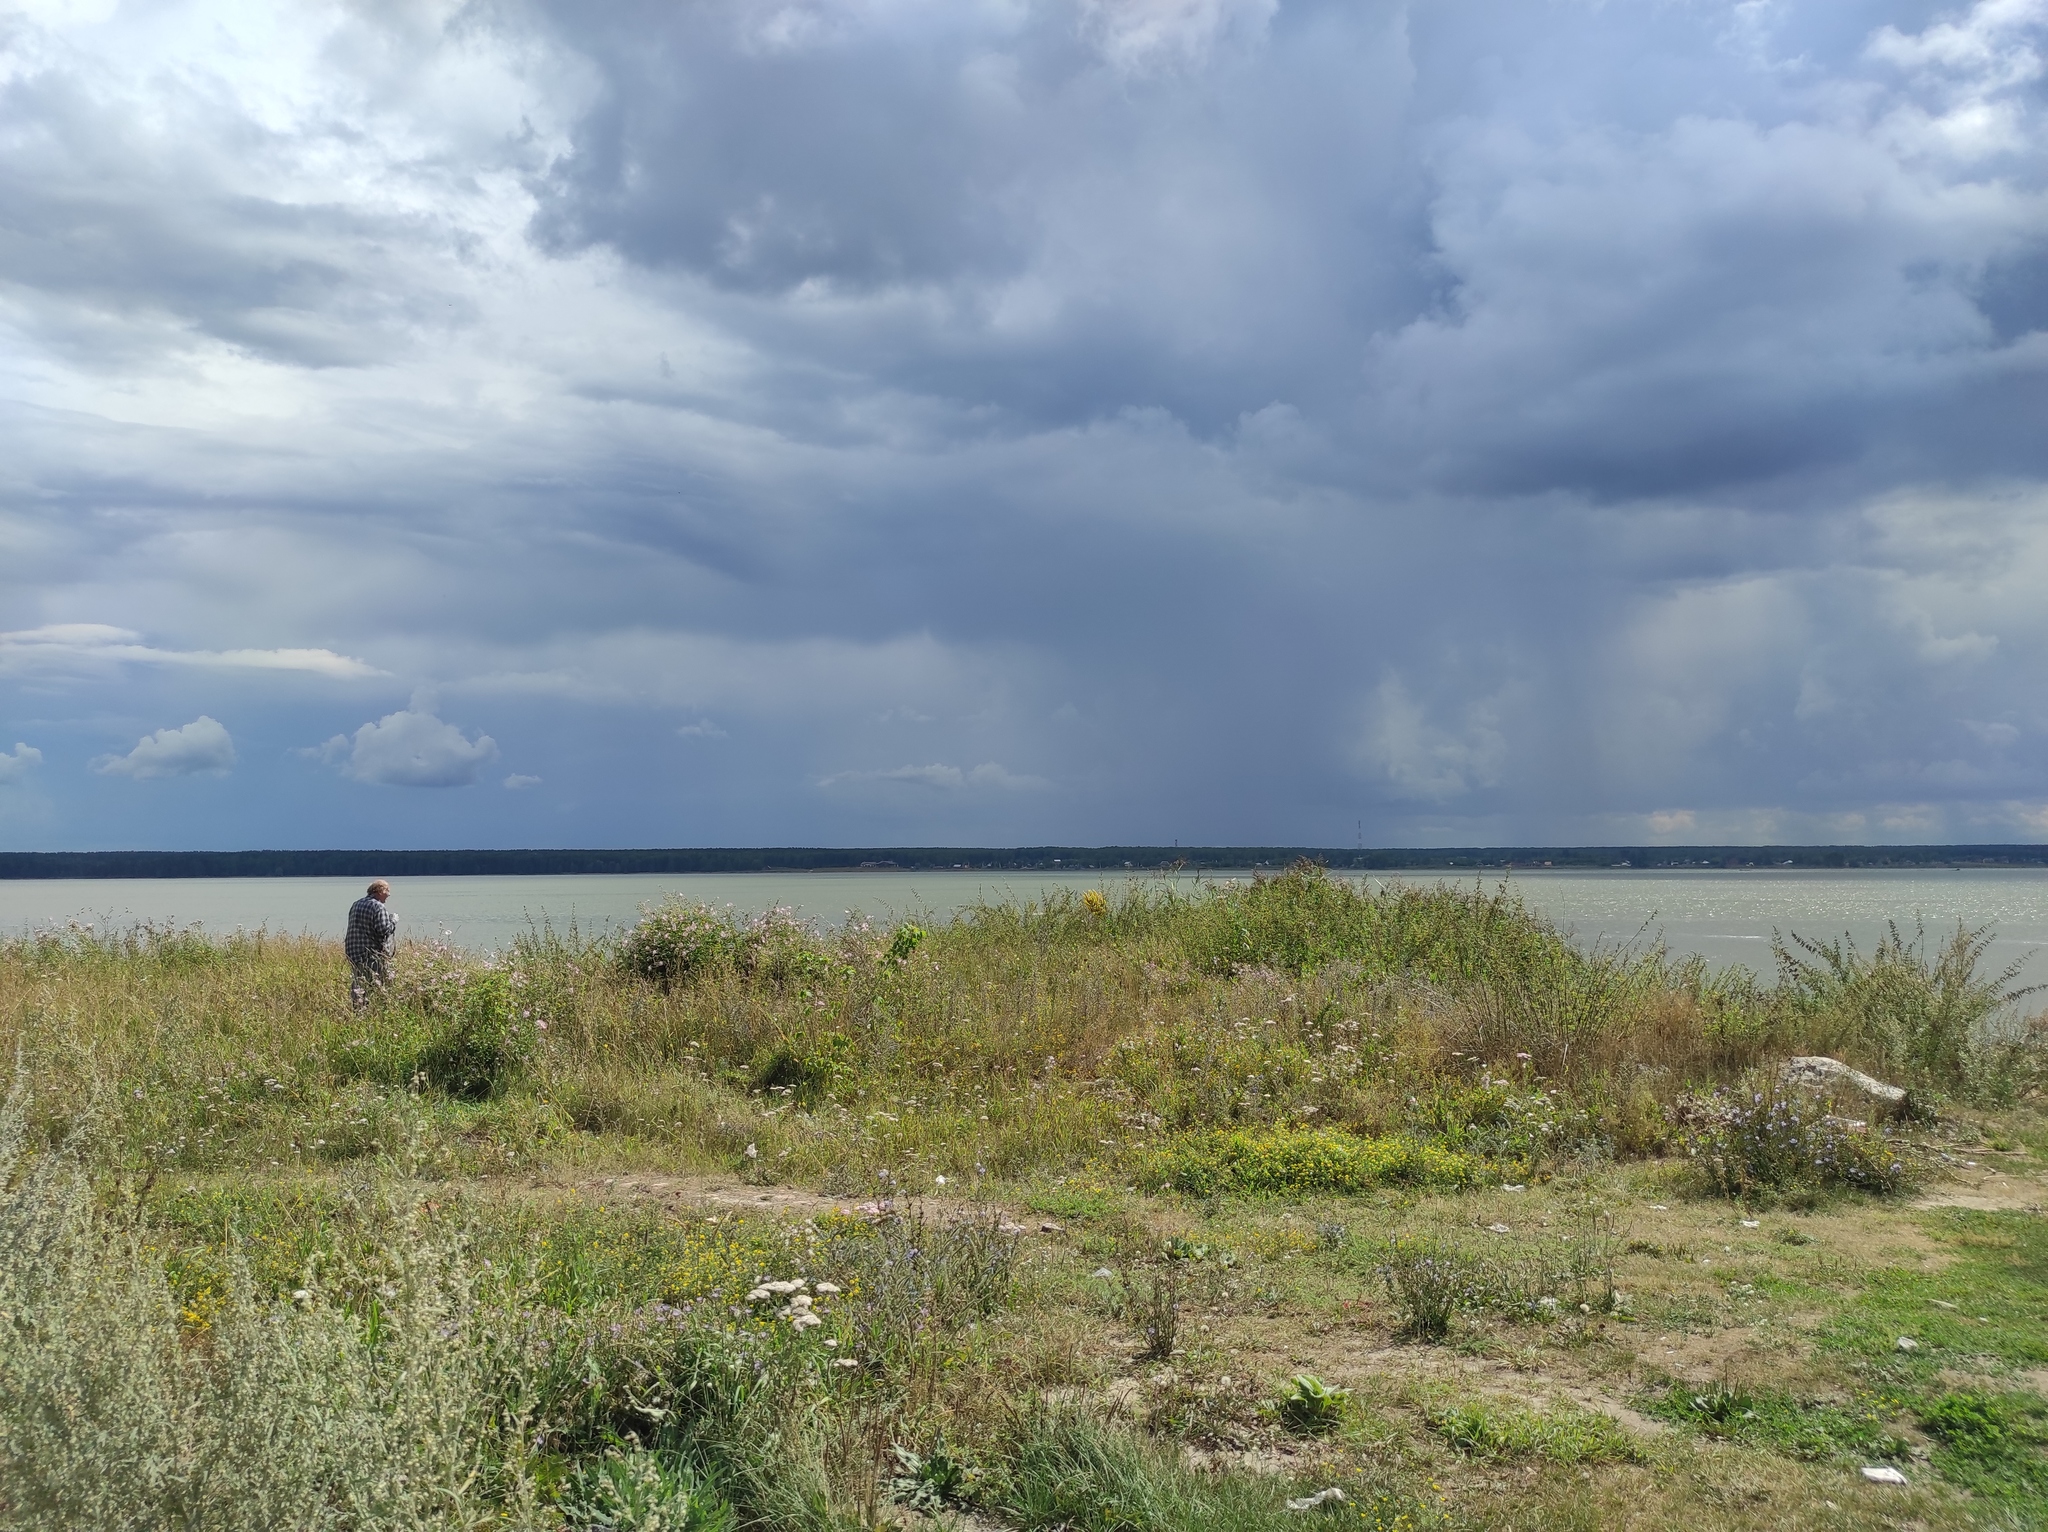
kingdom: Plantae
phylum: Tracheophyta
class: Magnoliopsida
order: Lamiales
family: Scrophulariaceae
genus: Verbascum
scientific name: Verbascum lychnitis
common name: White mullein
